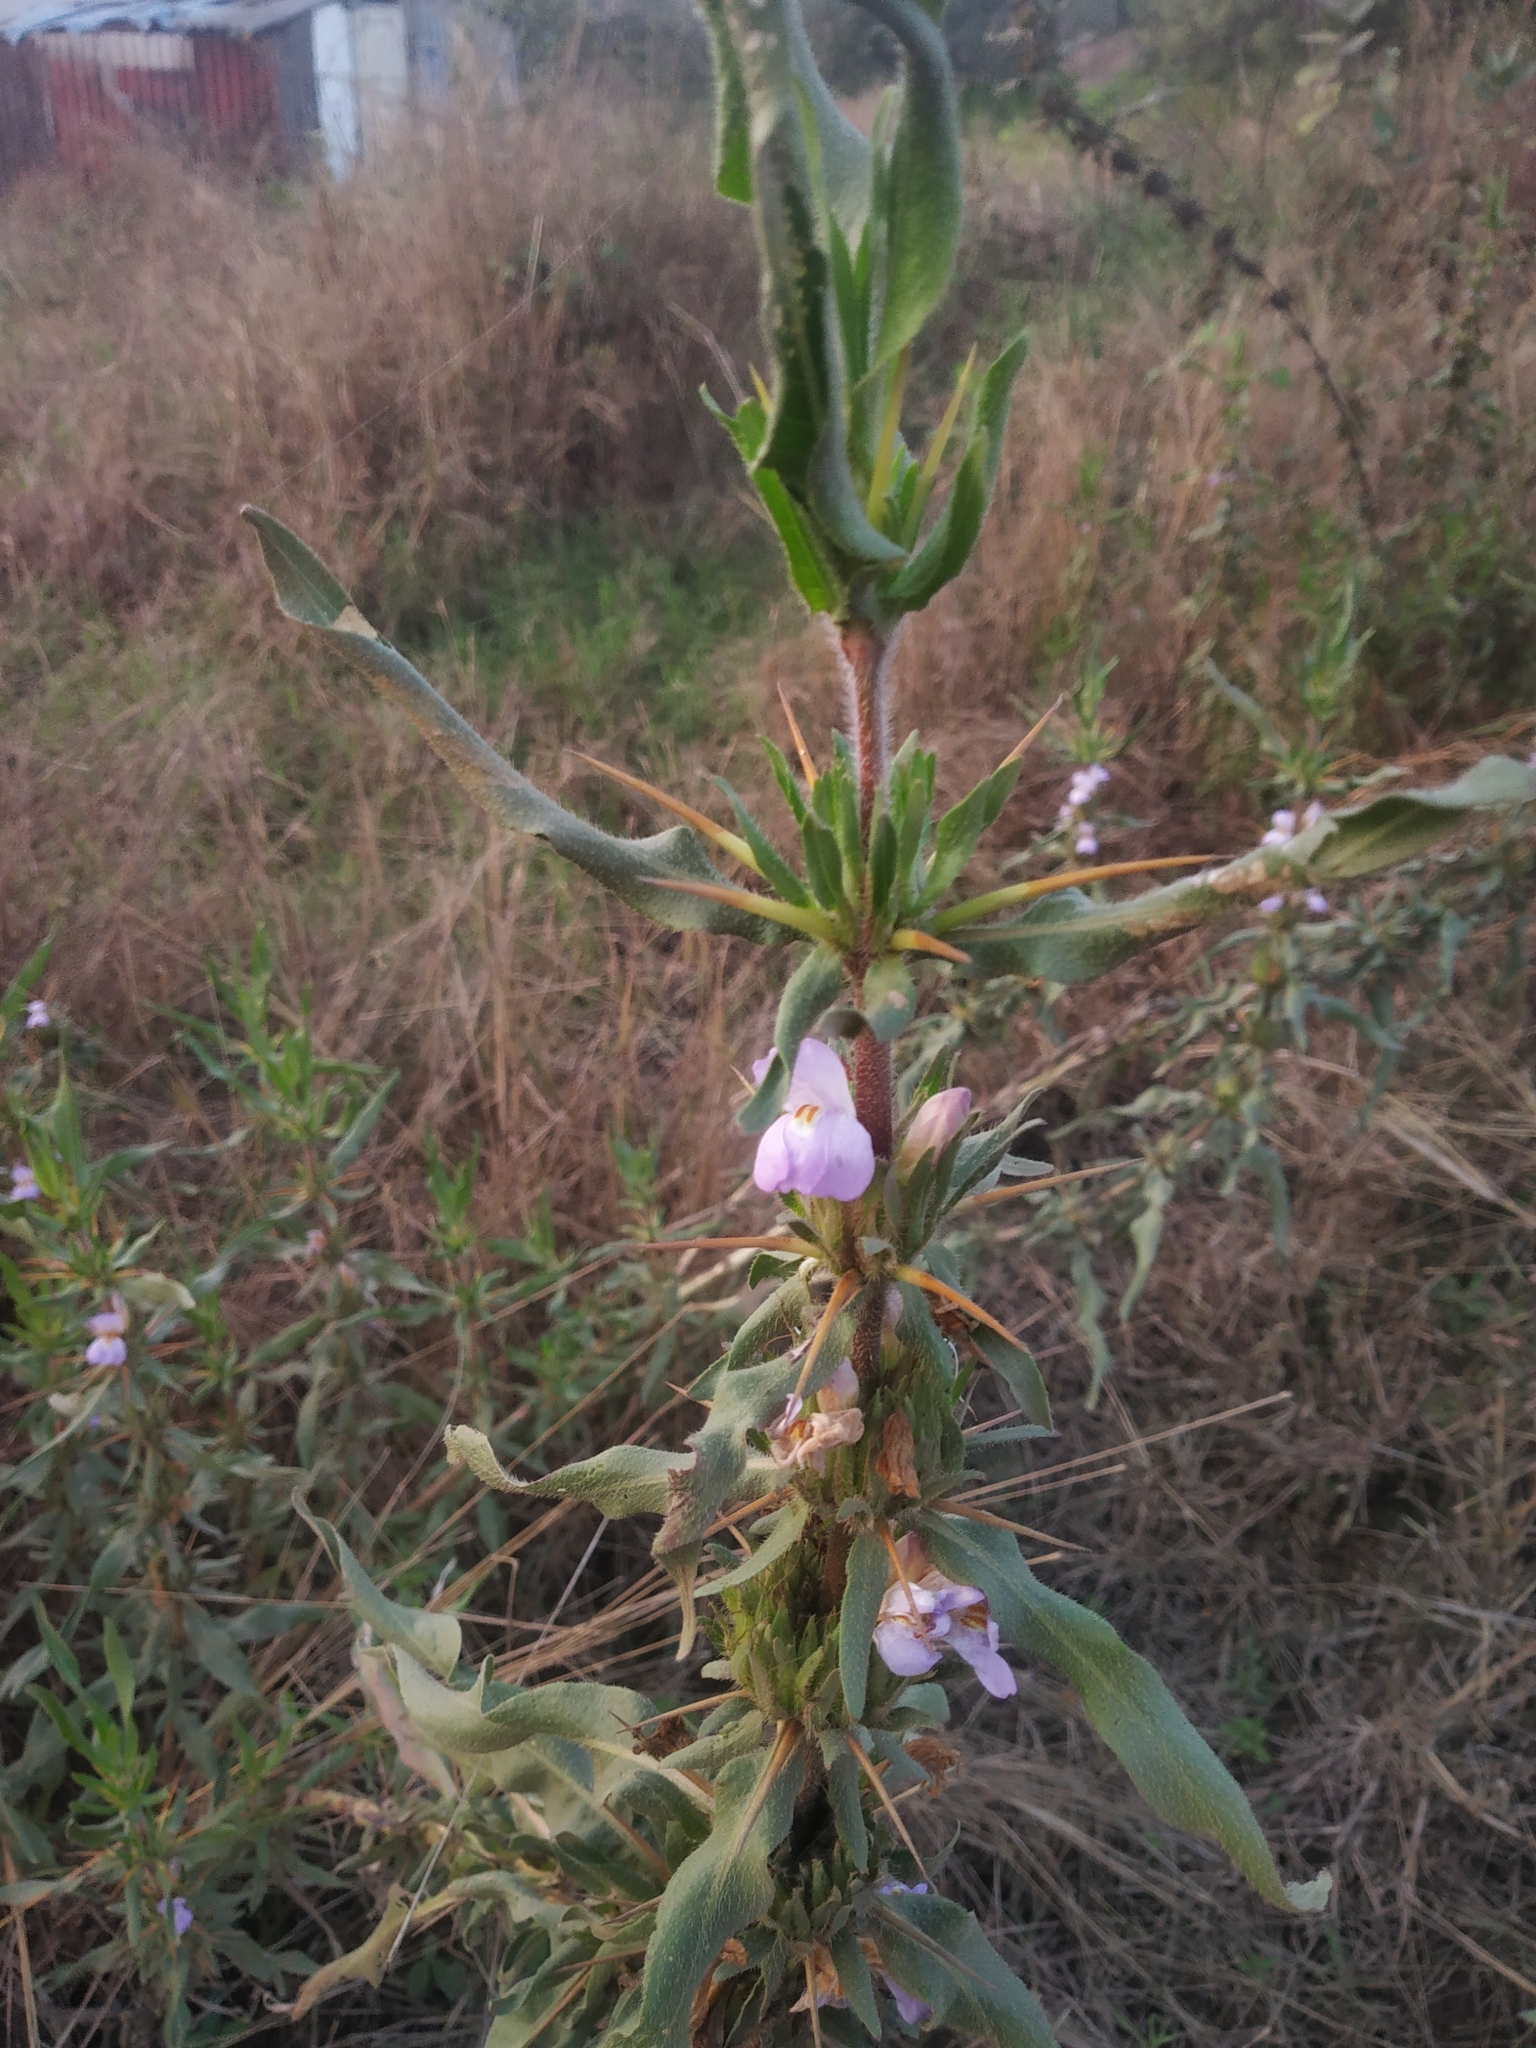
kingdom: Plantae
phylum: Tracheophyta
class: Magnoliopsida
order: Lamiales
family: Acanthaceae
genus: Hygrophila
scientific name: Hygrophila auriculata
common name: Hygrophila
